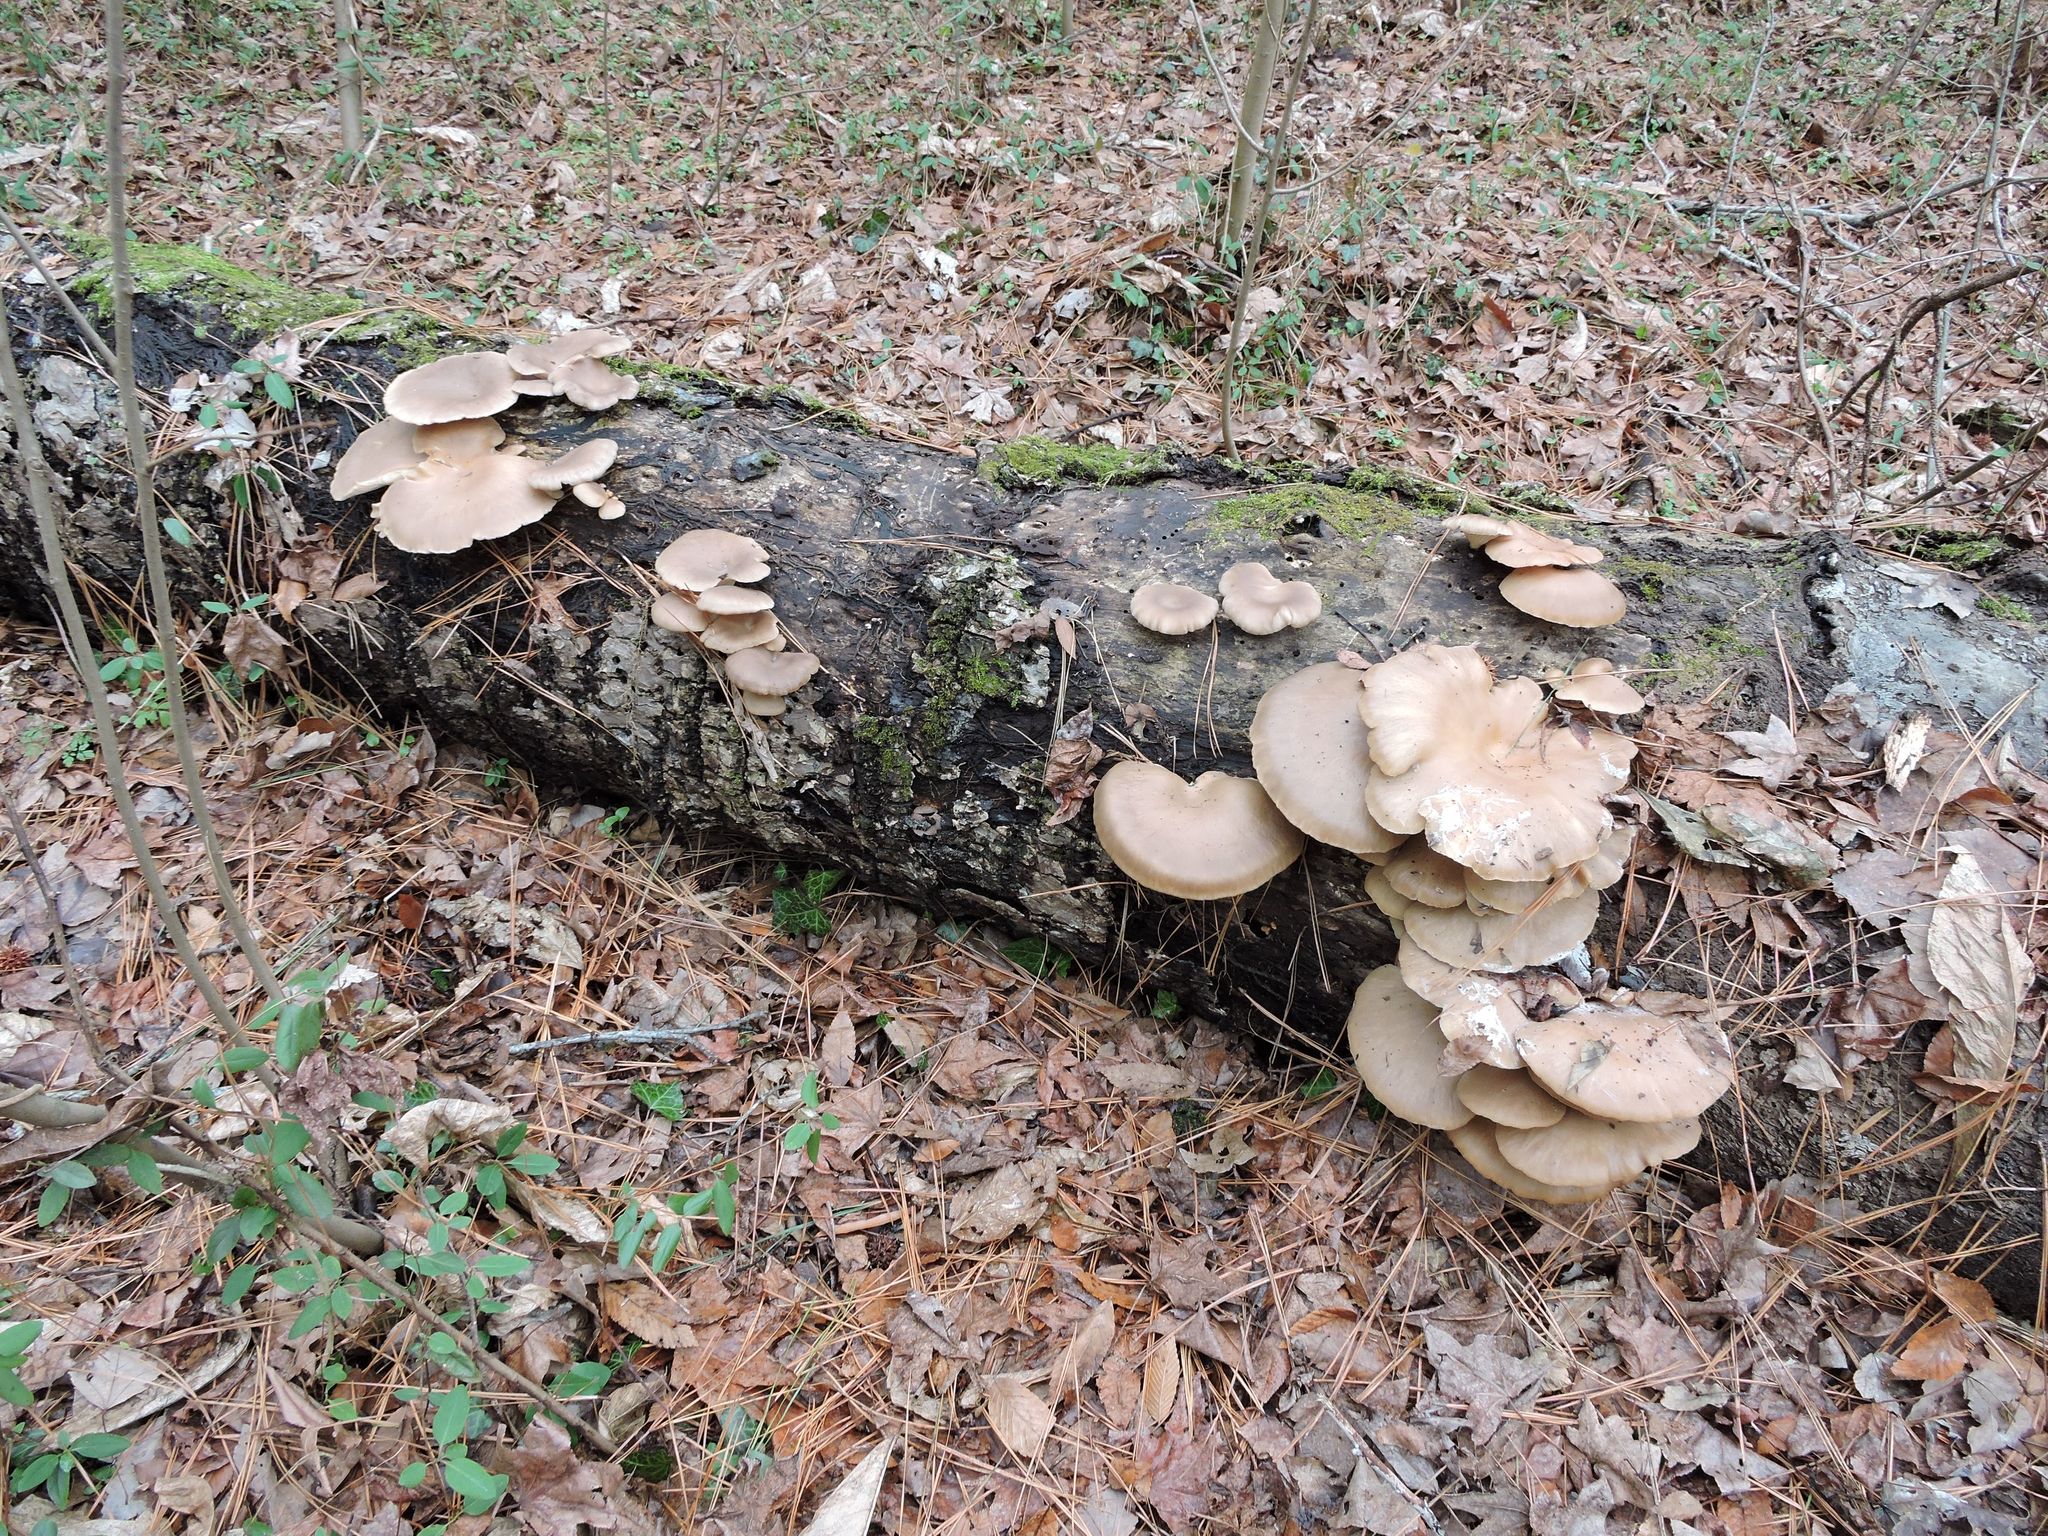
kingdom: Fungi
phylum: Basidiomycota
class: Agaricomycetes
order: Agaricales
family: Pleurotaceae
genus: Pleurotus
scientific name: Pleurotus ostreatus
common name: Oyster mushroom
